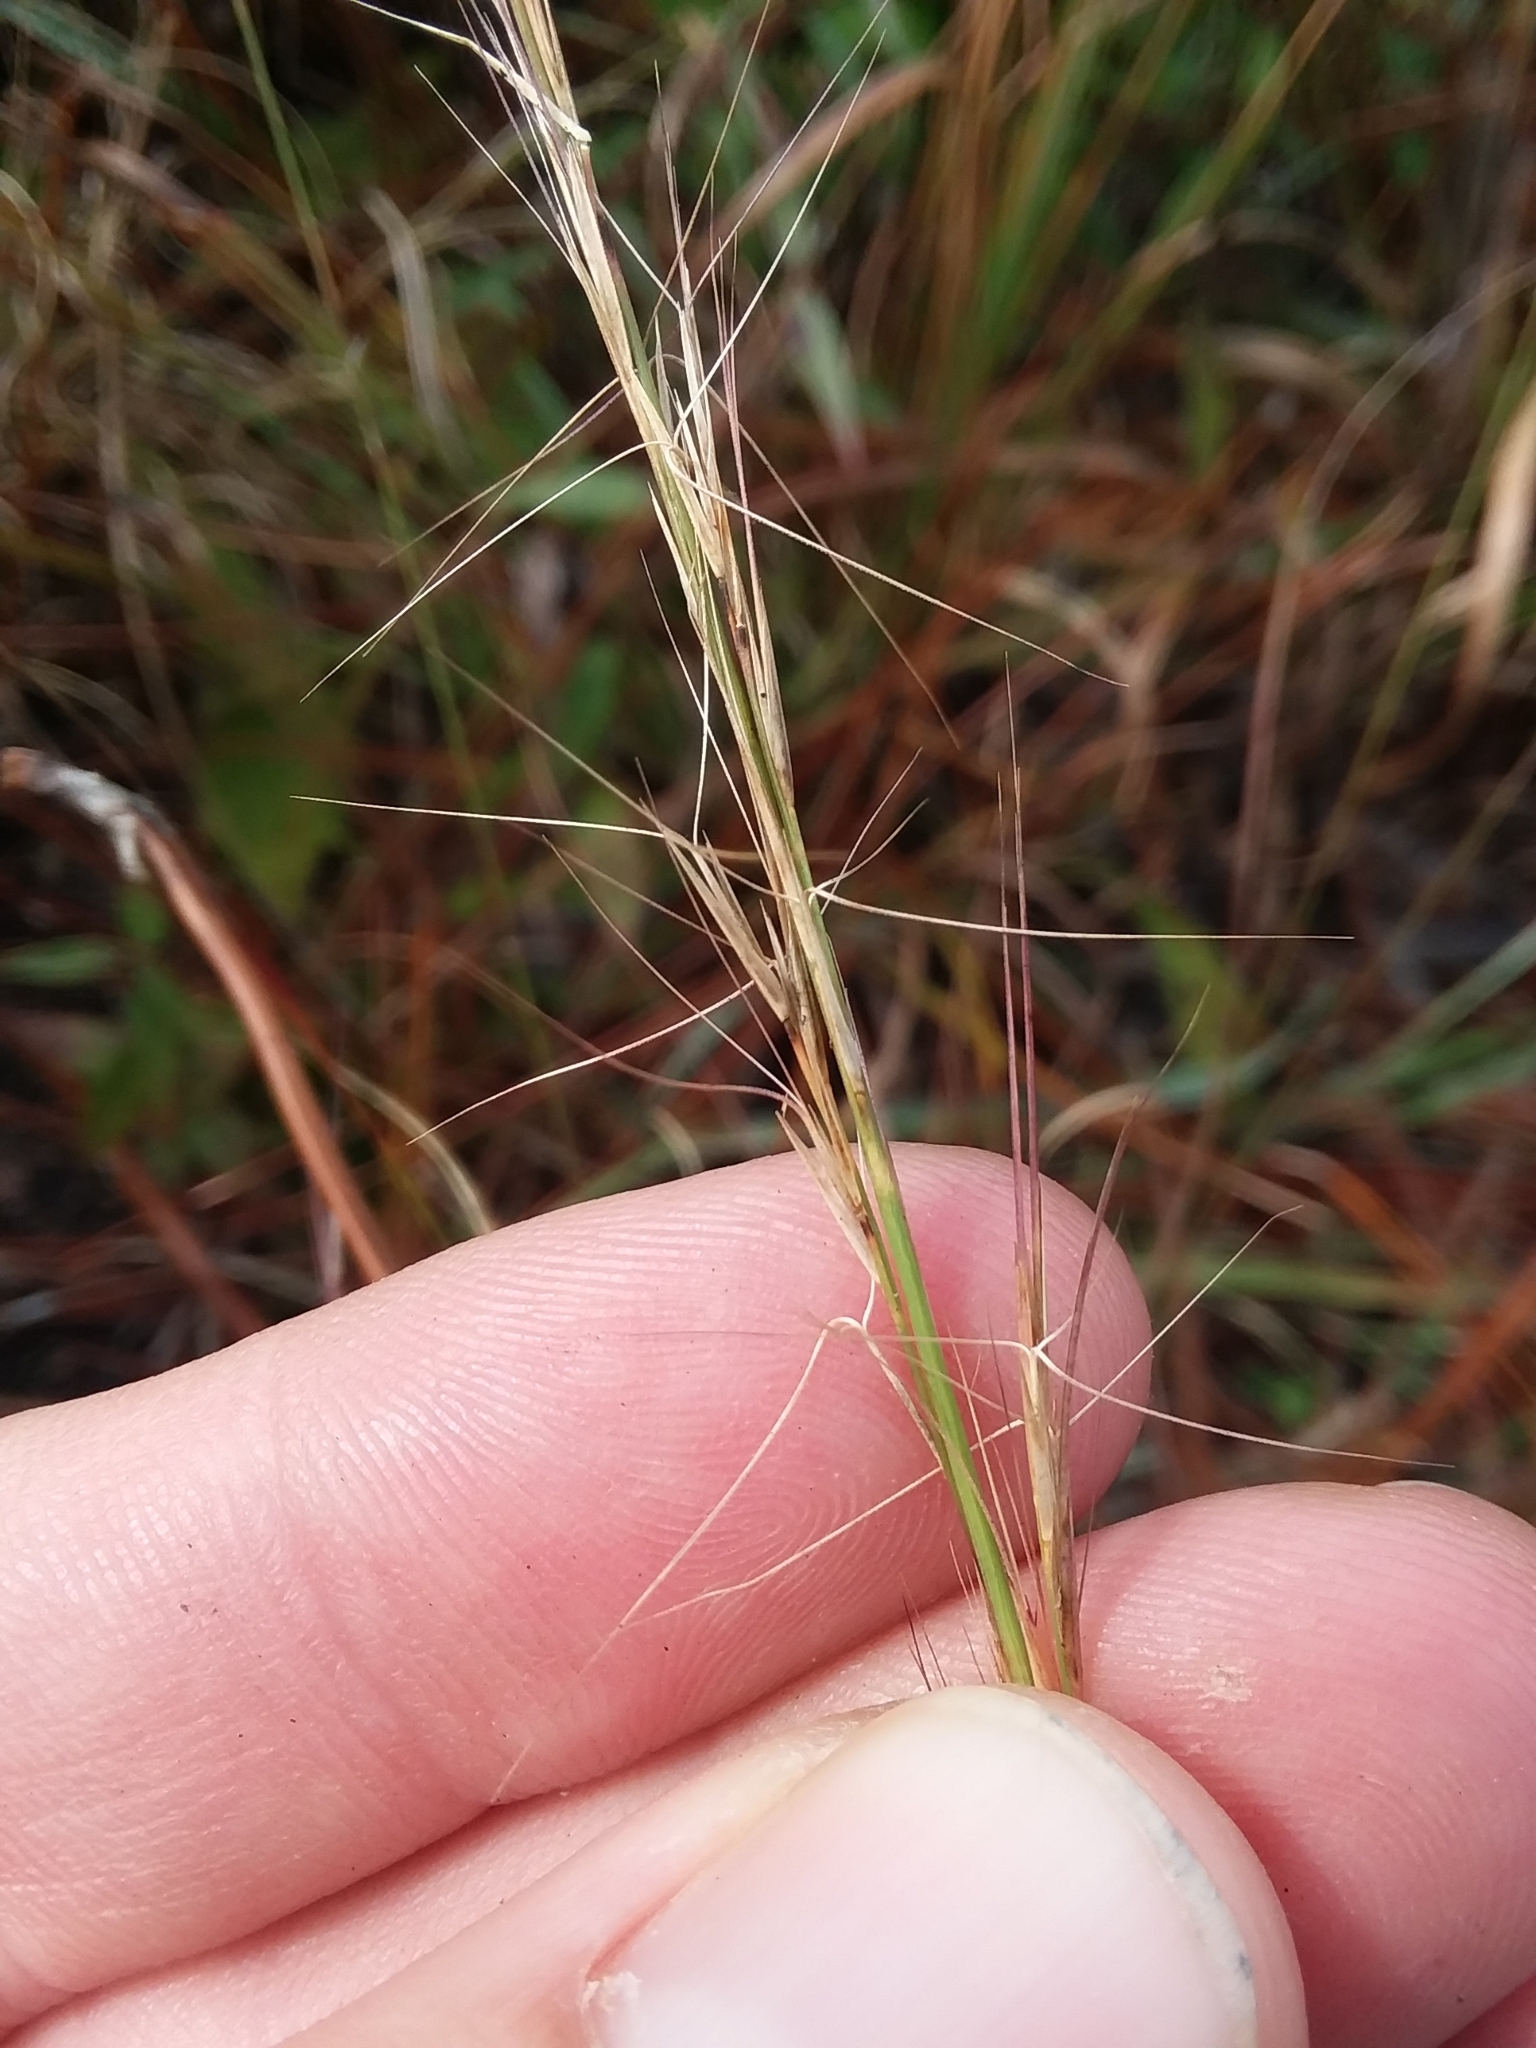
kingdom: Plantae
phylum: Tracheophyta
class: Liliopsida
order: Poales
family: Poaceae
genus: Aristida
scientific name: Aristida purpurascens
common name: Arrow-feather
